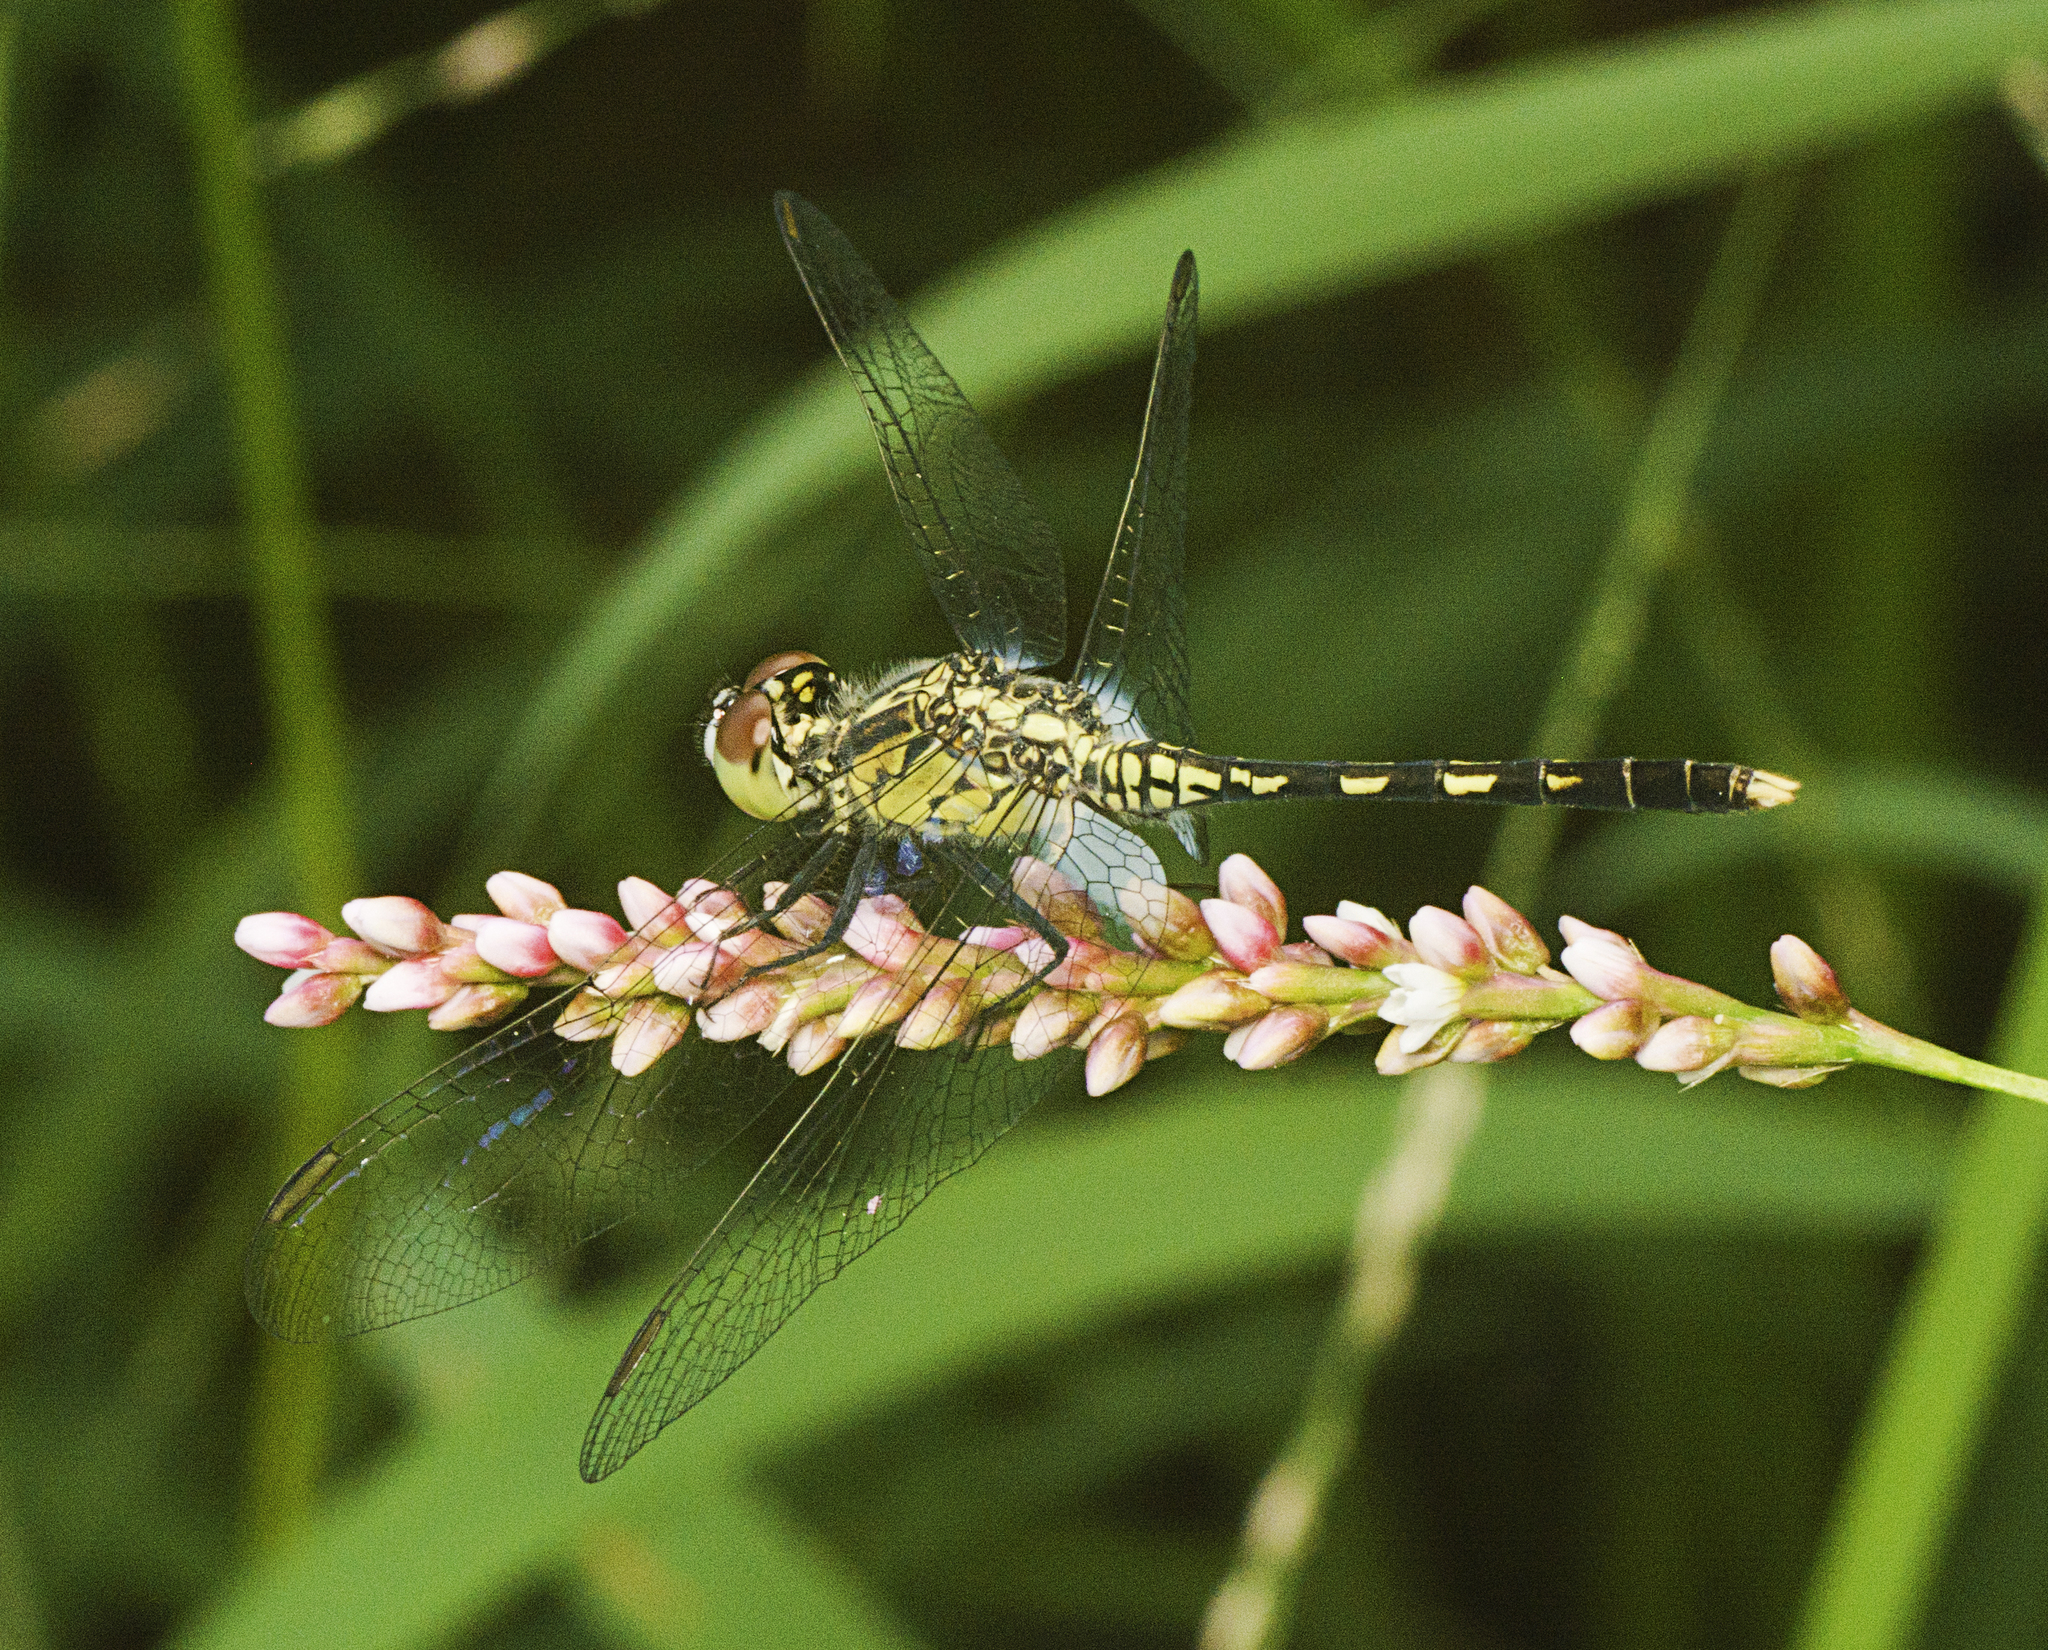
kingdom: Animalia
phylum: Arthropoda
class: Insecta
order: Odonata
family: Libellulidae
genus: Diplacodes
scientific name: Diplacodes trivialis
